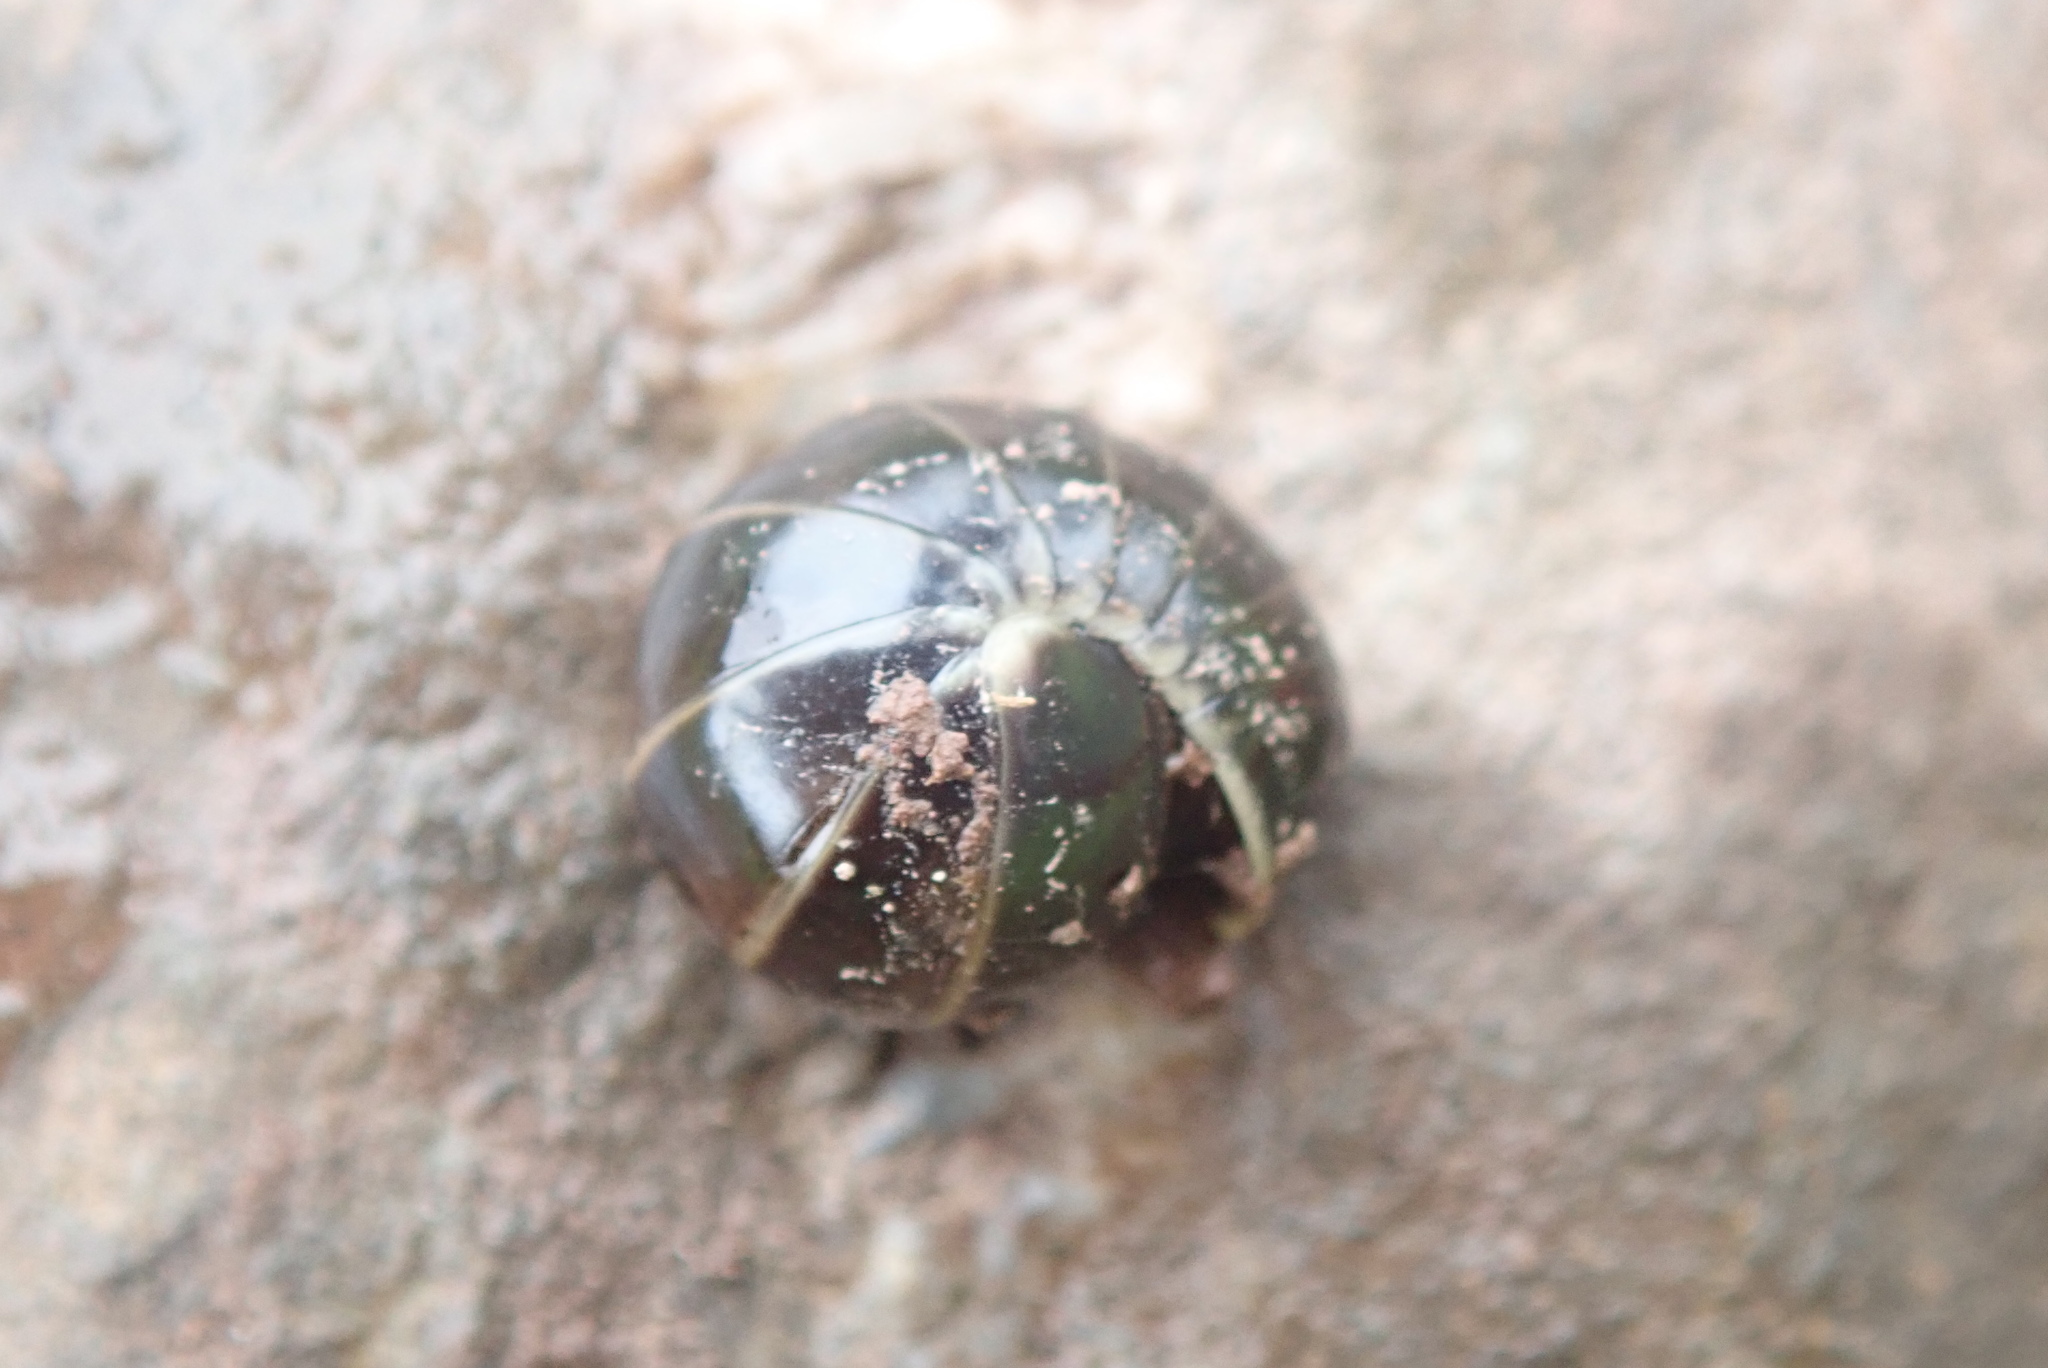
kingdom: Animalia
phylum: Arthropoda
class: Diplopoda
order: Glomerida
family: Glomeridae
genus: Glomeris
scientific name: Glomeris marginata
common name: Bordered pill millipede
